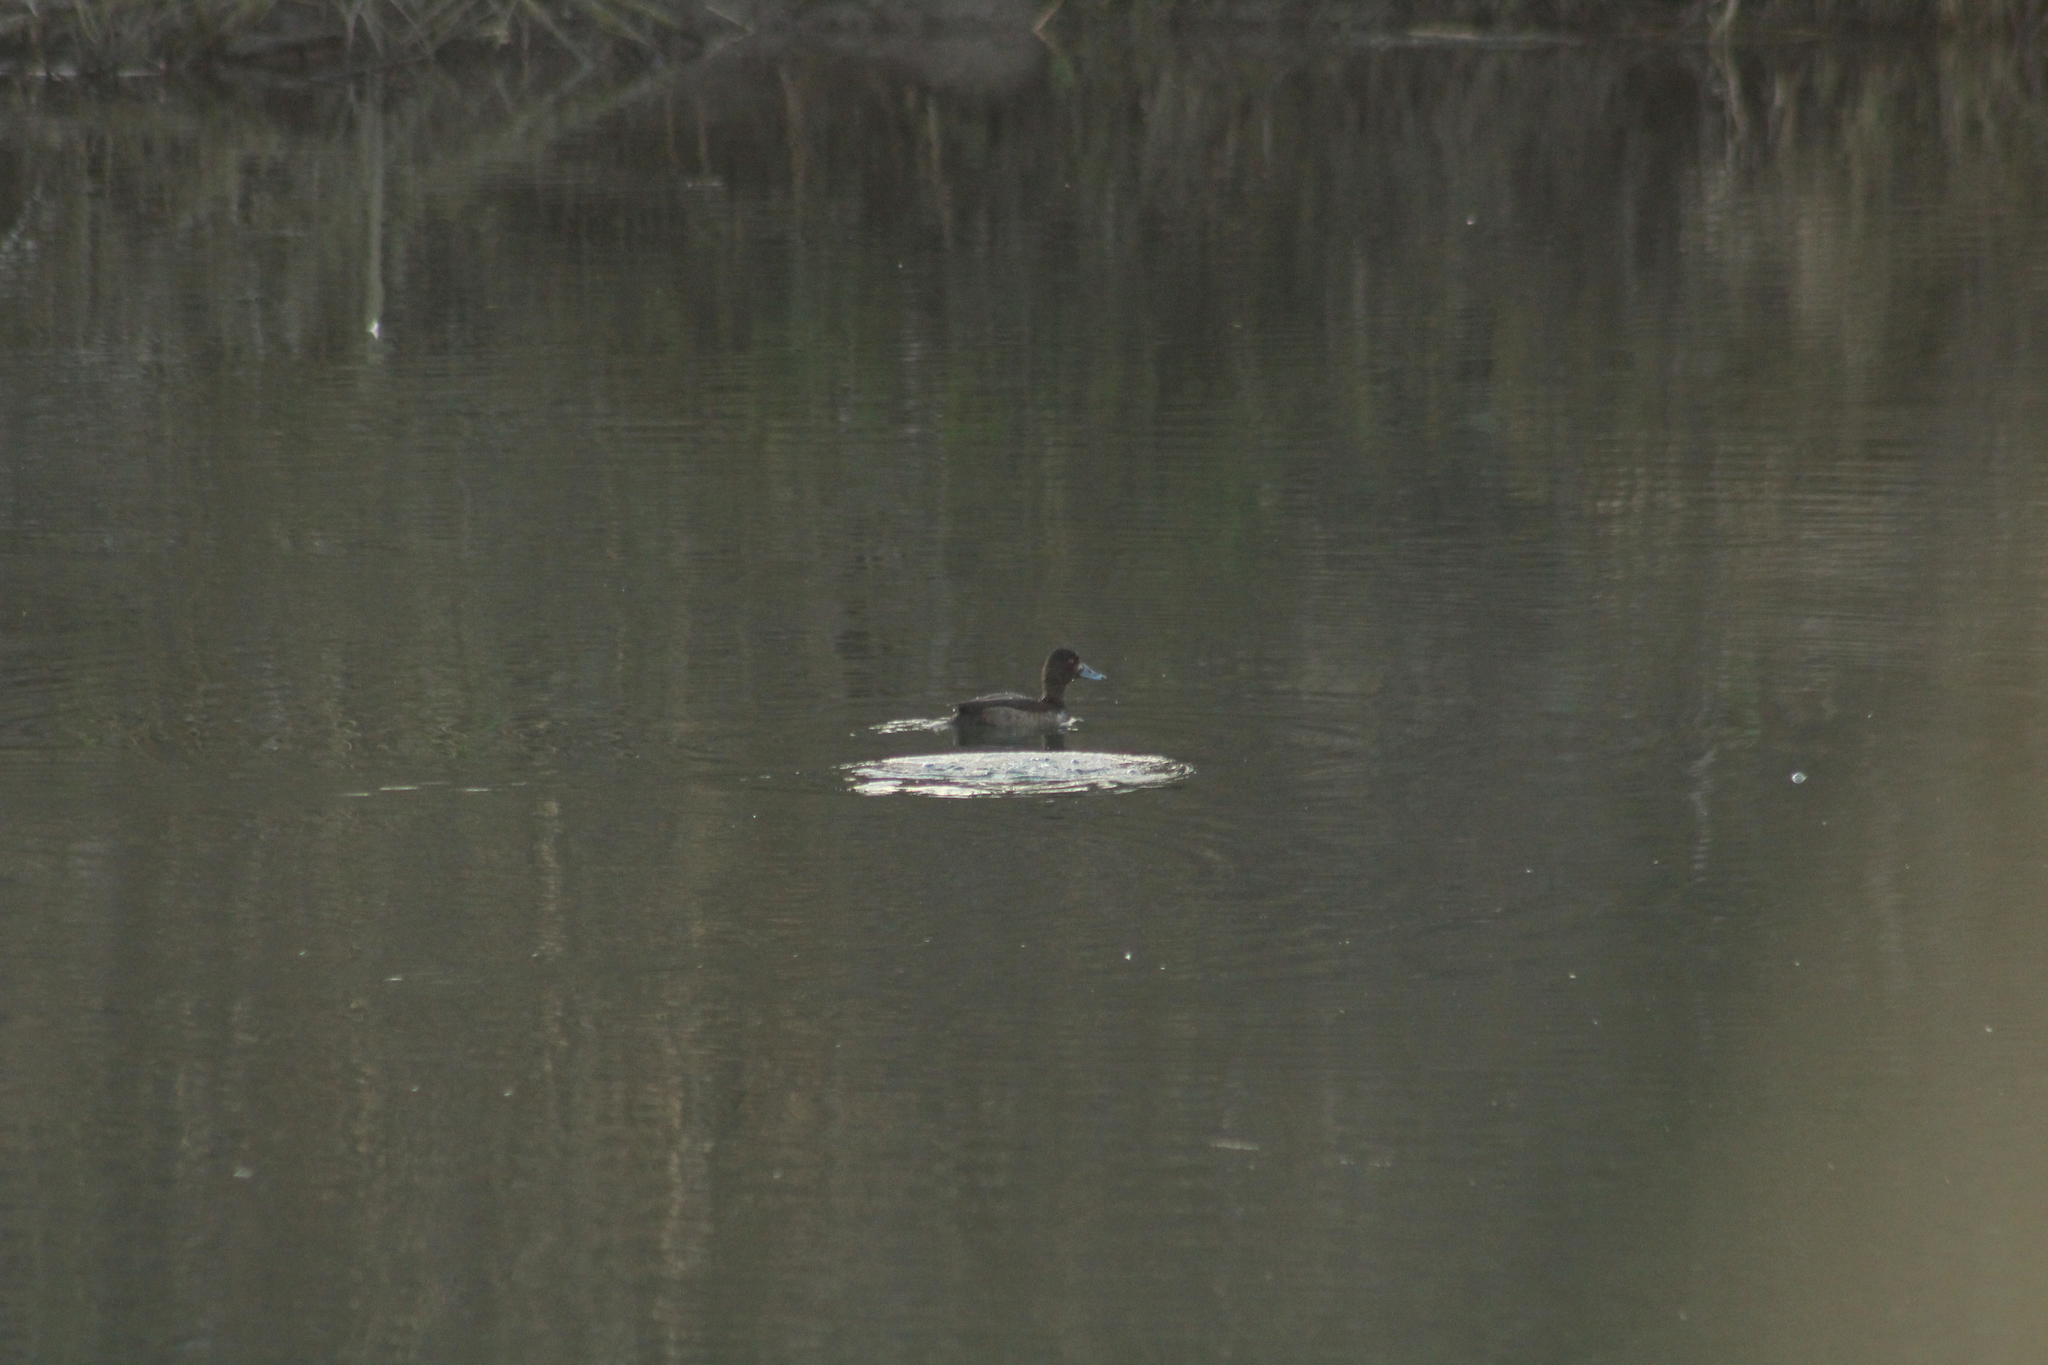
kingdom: Animalia
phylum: Chordata
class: Aves
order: Anseriformes
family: Anatidae
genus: Aythya
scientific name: Aythya fuligula
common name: Tufted duck
